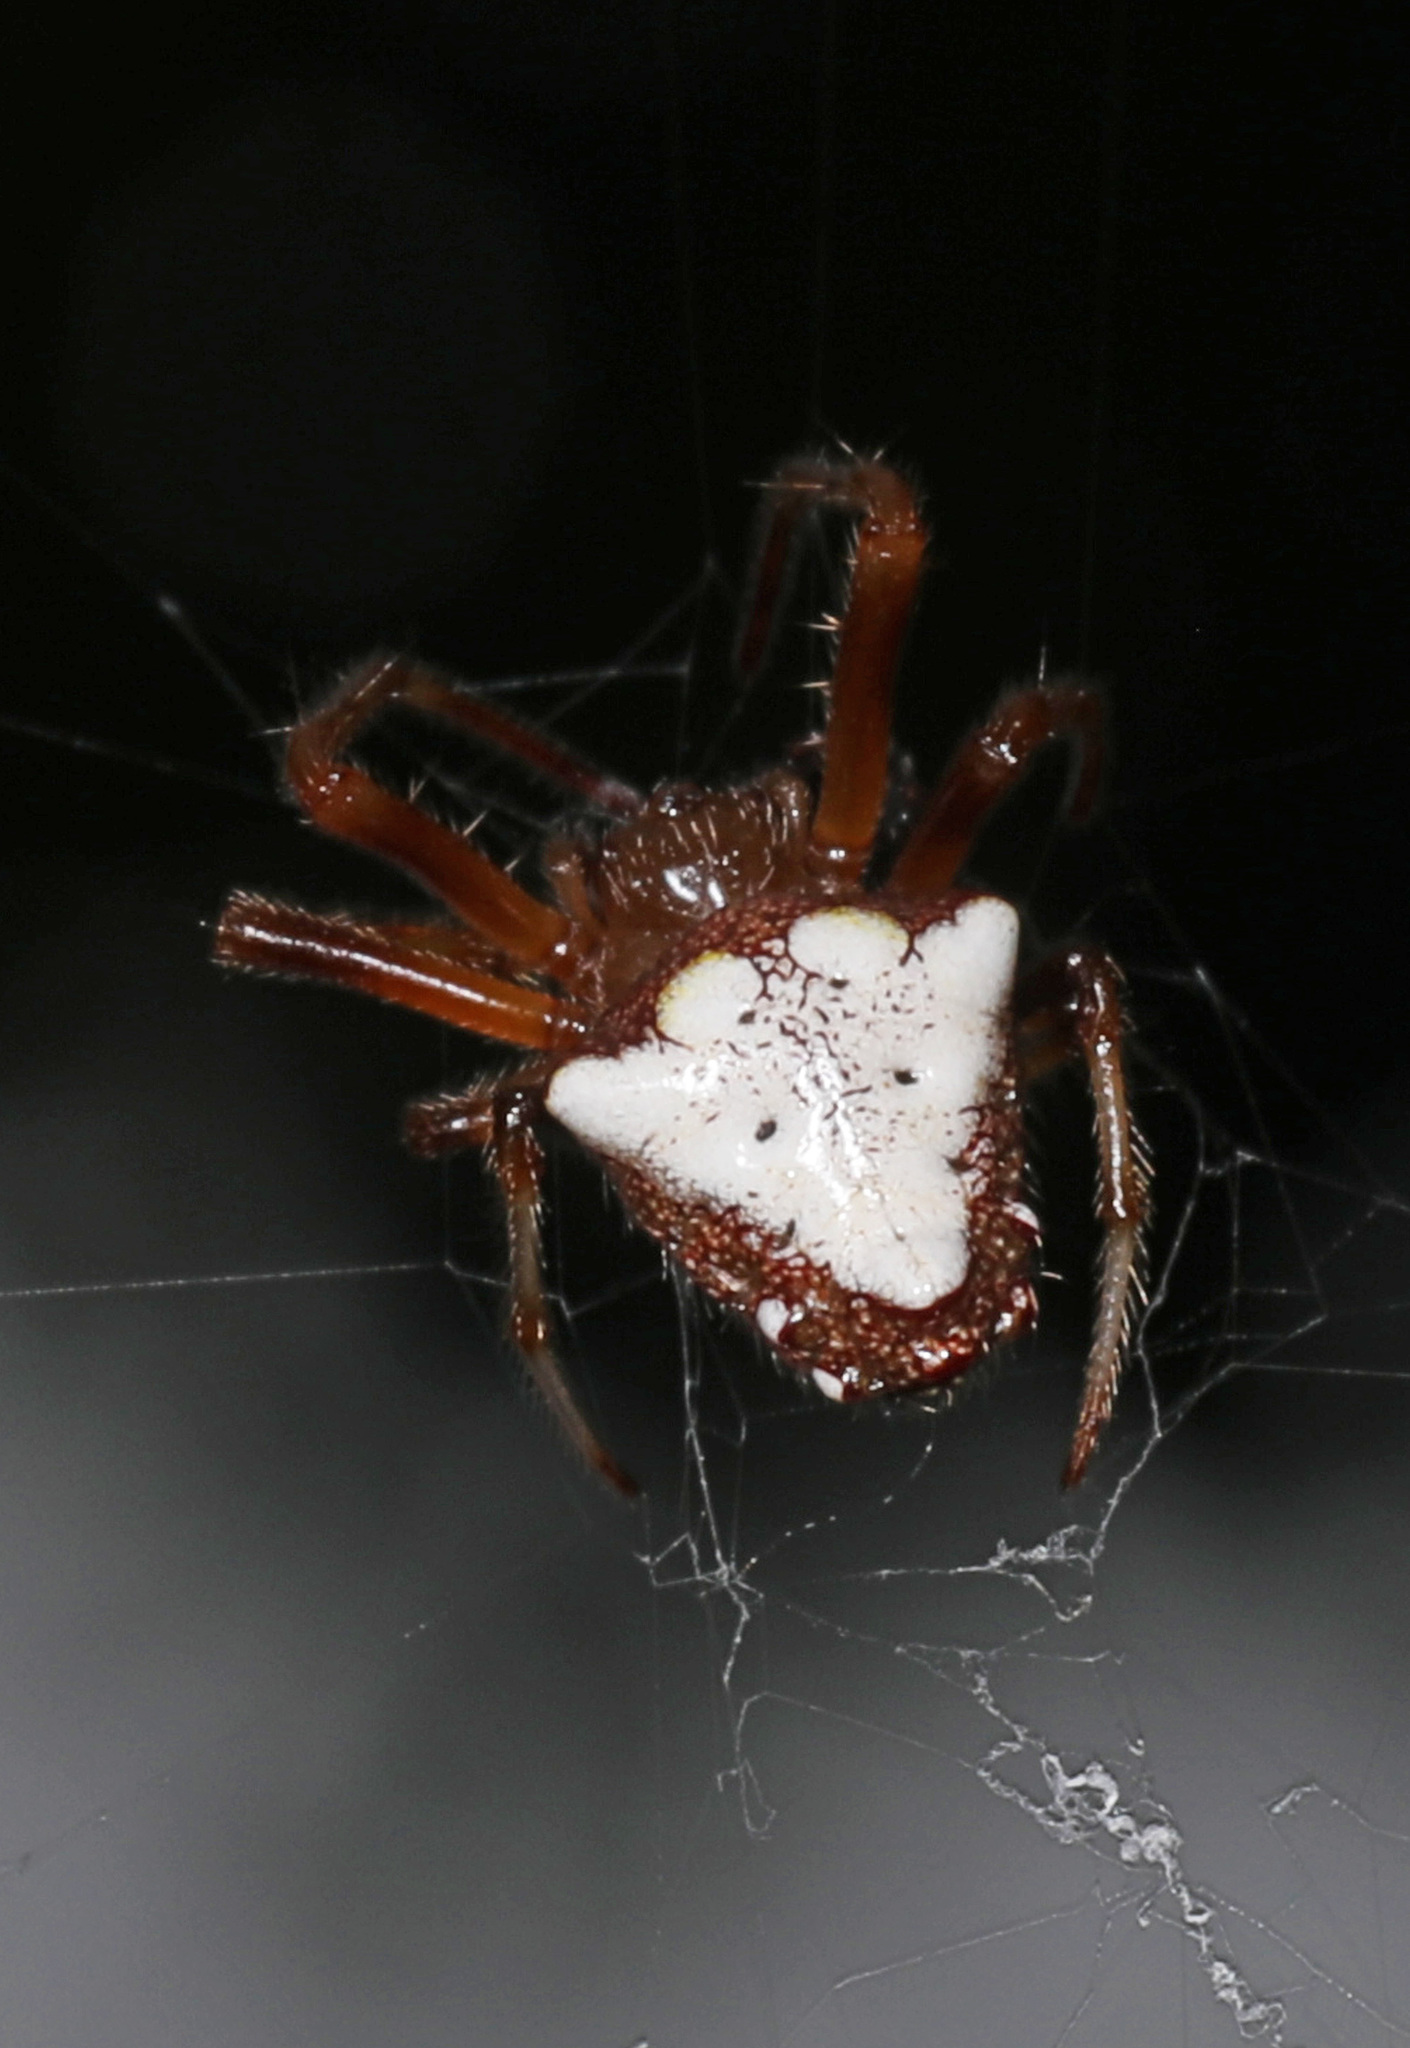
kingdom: Animalia
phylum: Arthropoda
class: Arachnida
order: Araneae
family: Araneidae
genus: Verrucosa
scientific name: Verrucosa arenata
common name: Orb weavers
